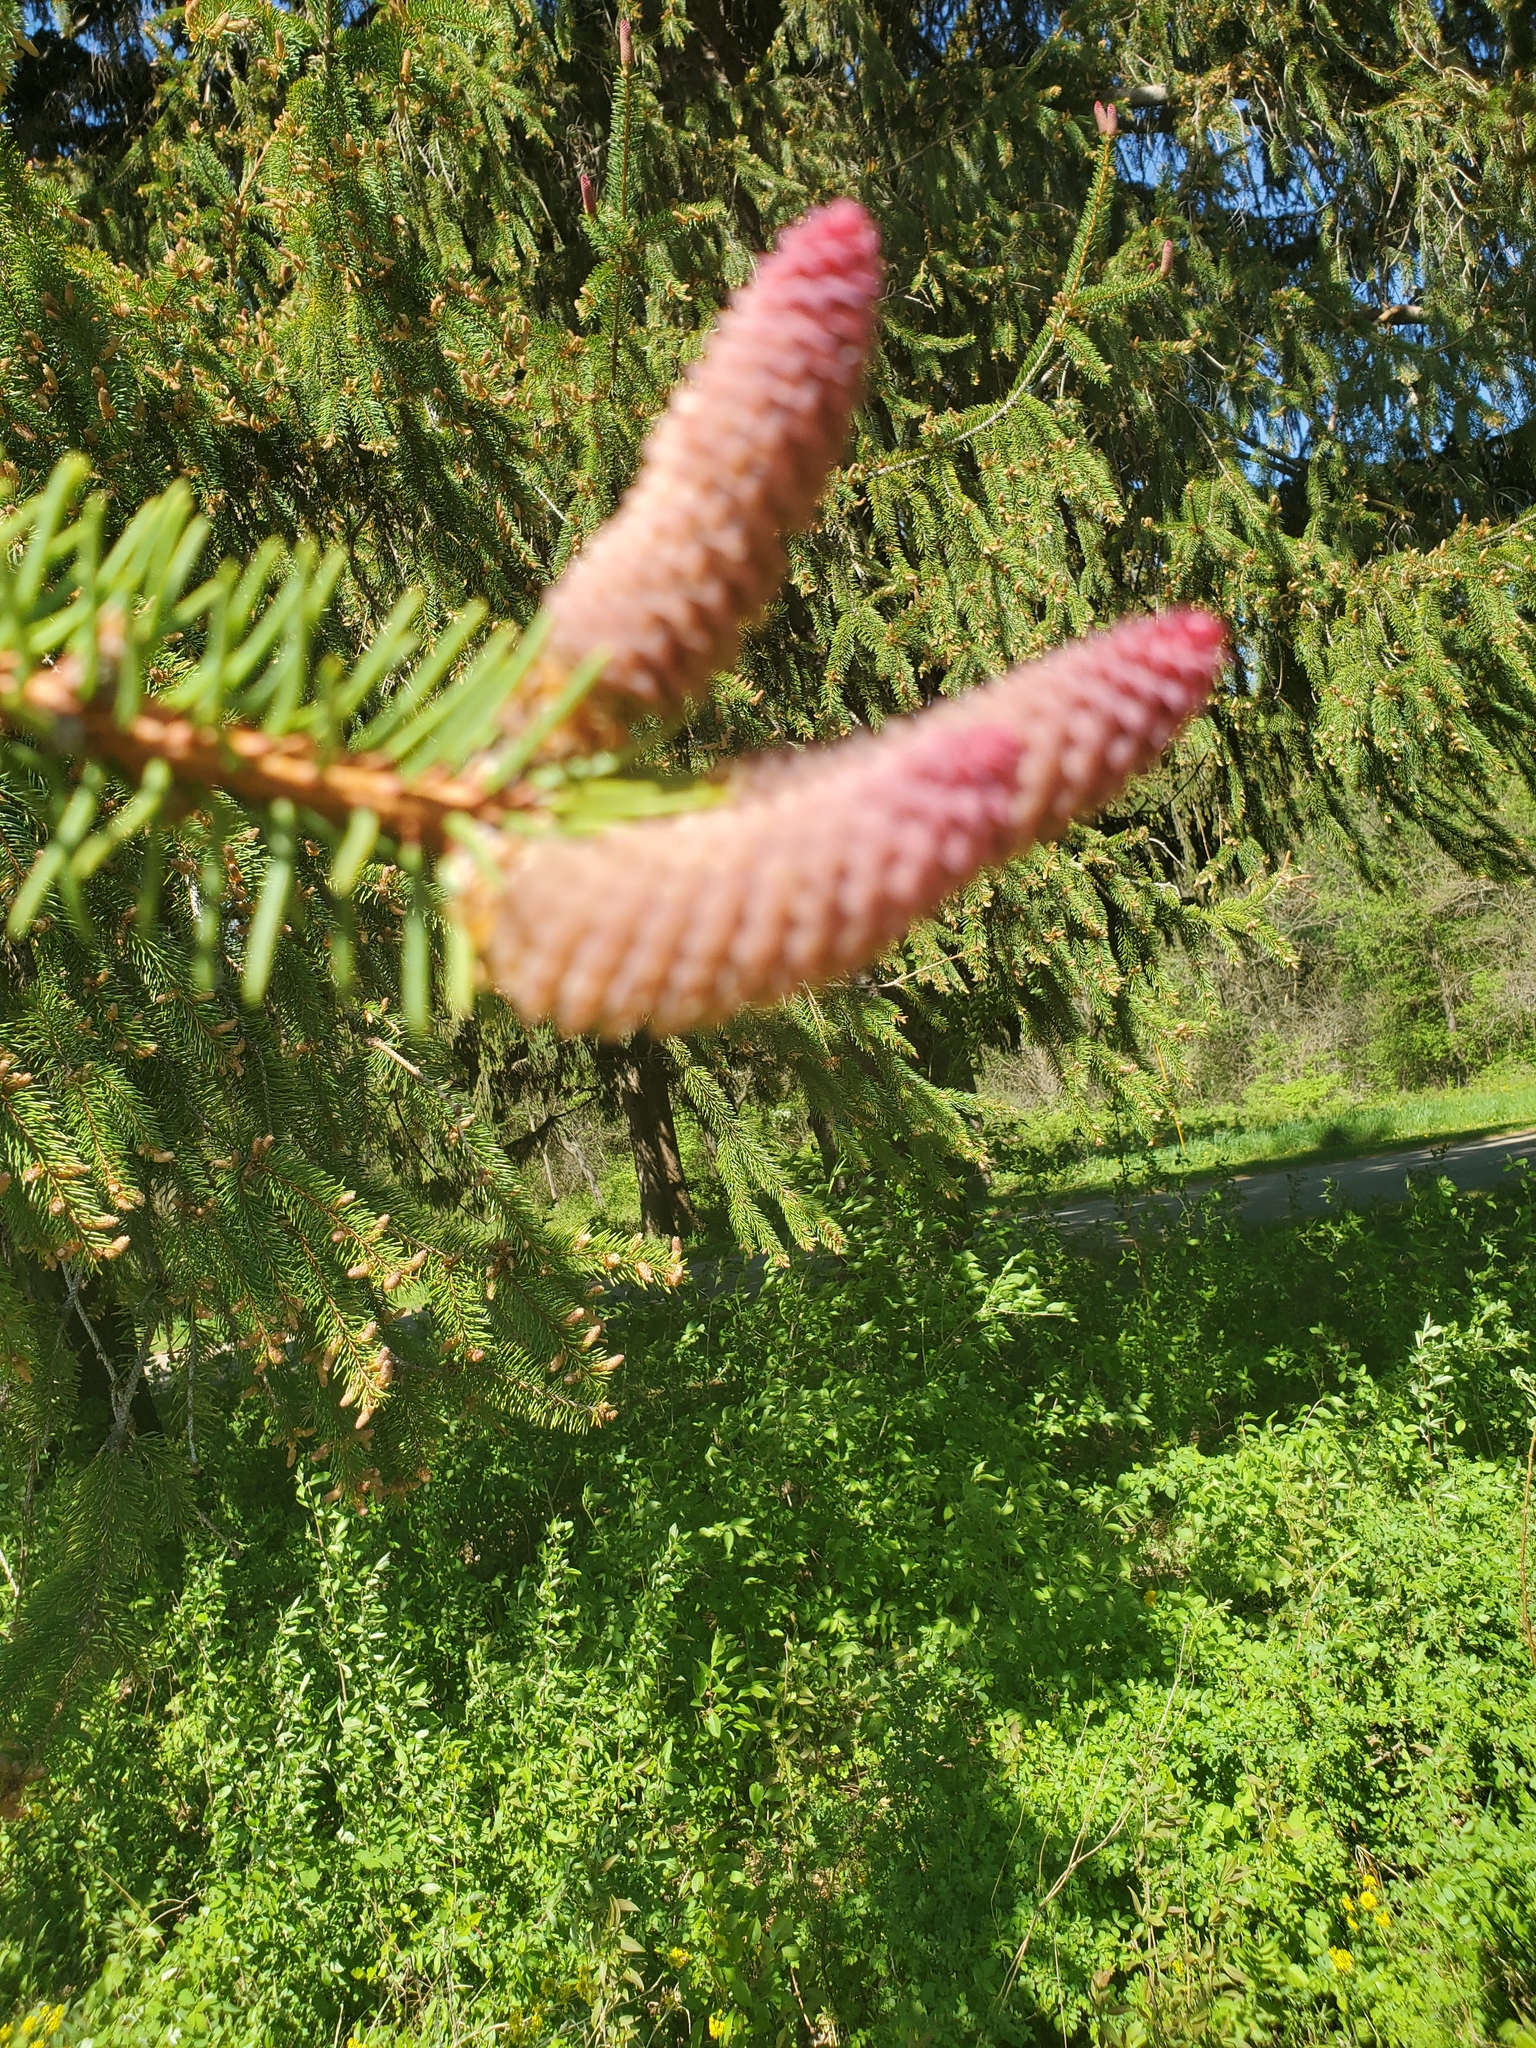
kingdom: Plantae
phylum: Tracheophyta
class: Pinopsida
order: Pinales
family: Pinaceae
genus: Picea
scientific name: Picea abies
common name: Norway spruce
